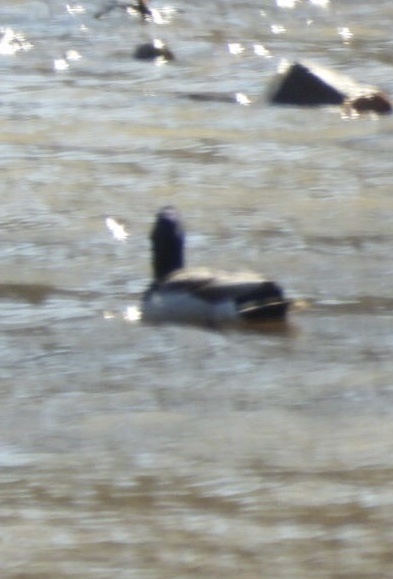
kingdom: Animalia
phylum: Chordata
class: Aves
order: Anseriformes
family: Anatidae
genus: Anas
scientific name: Anas platyrhynchos
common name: Mallard
